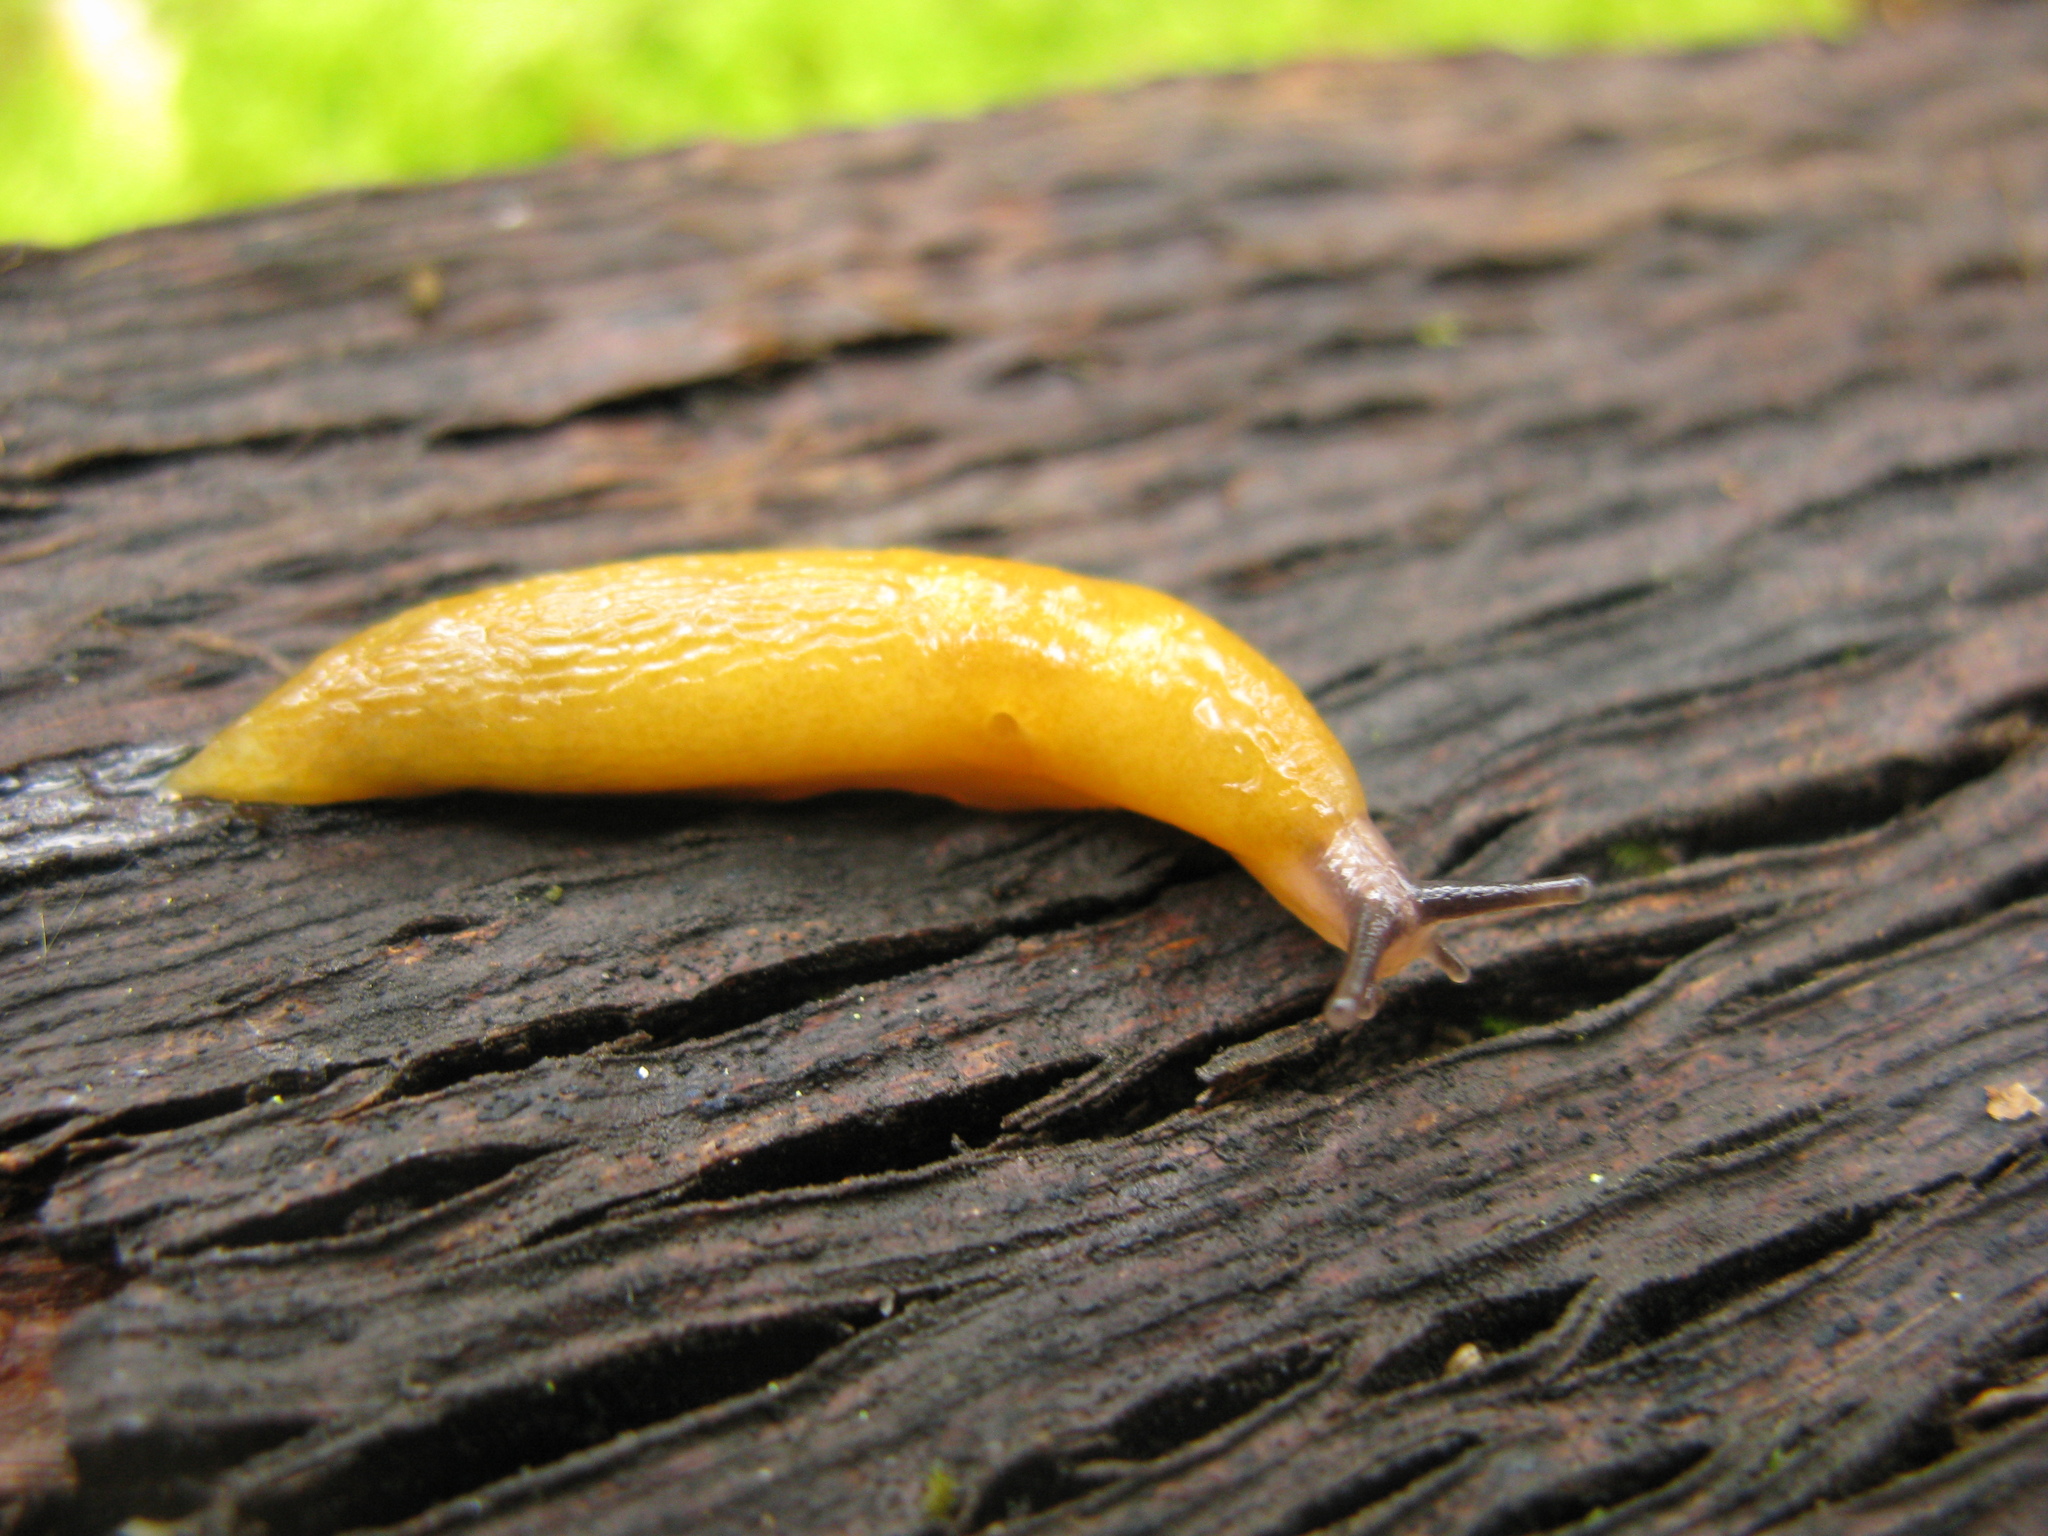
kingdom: Animalia
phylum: Mollusca
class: Gastropoda
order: Stylommatophora
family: Limacidae
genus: Malacolimax
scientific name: Malacolimax tenellus
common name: Lemon slug
